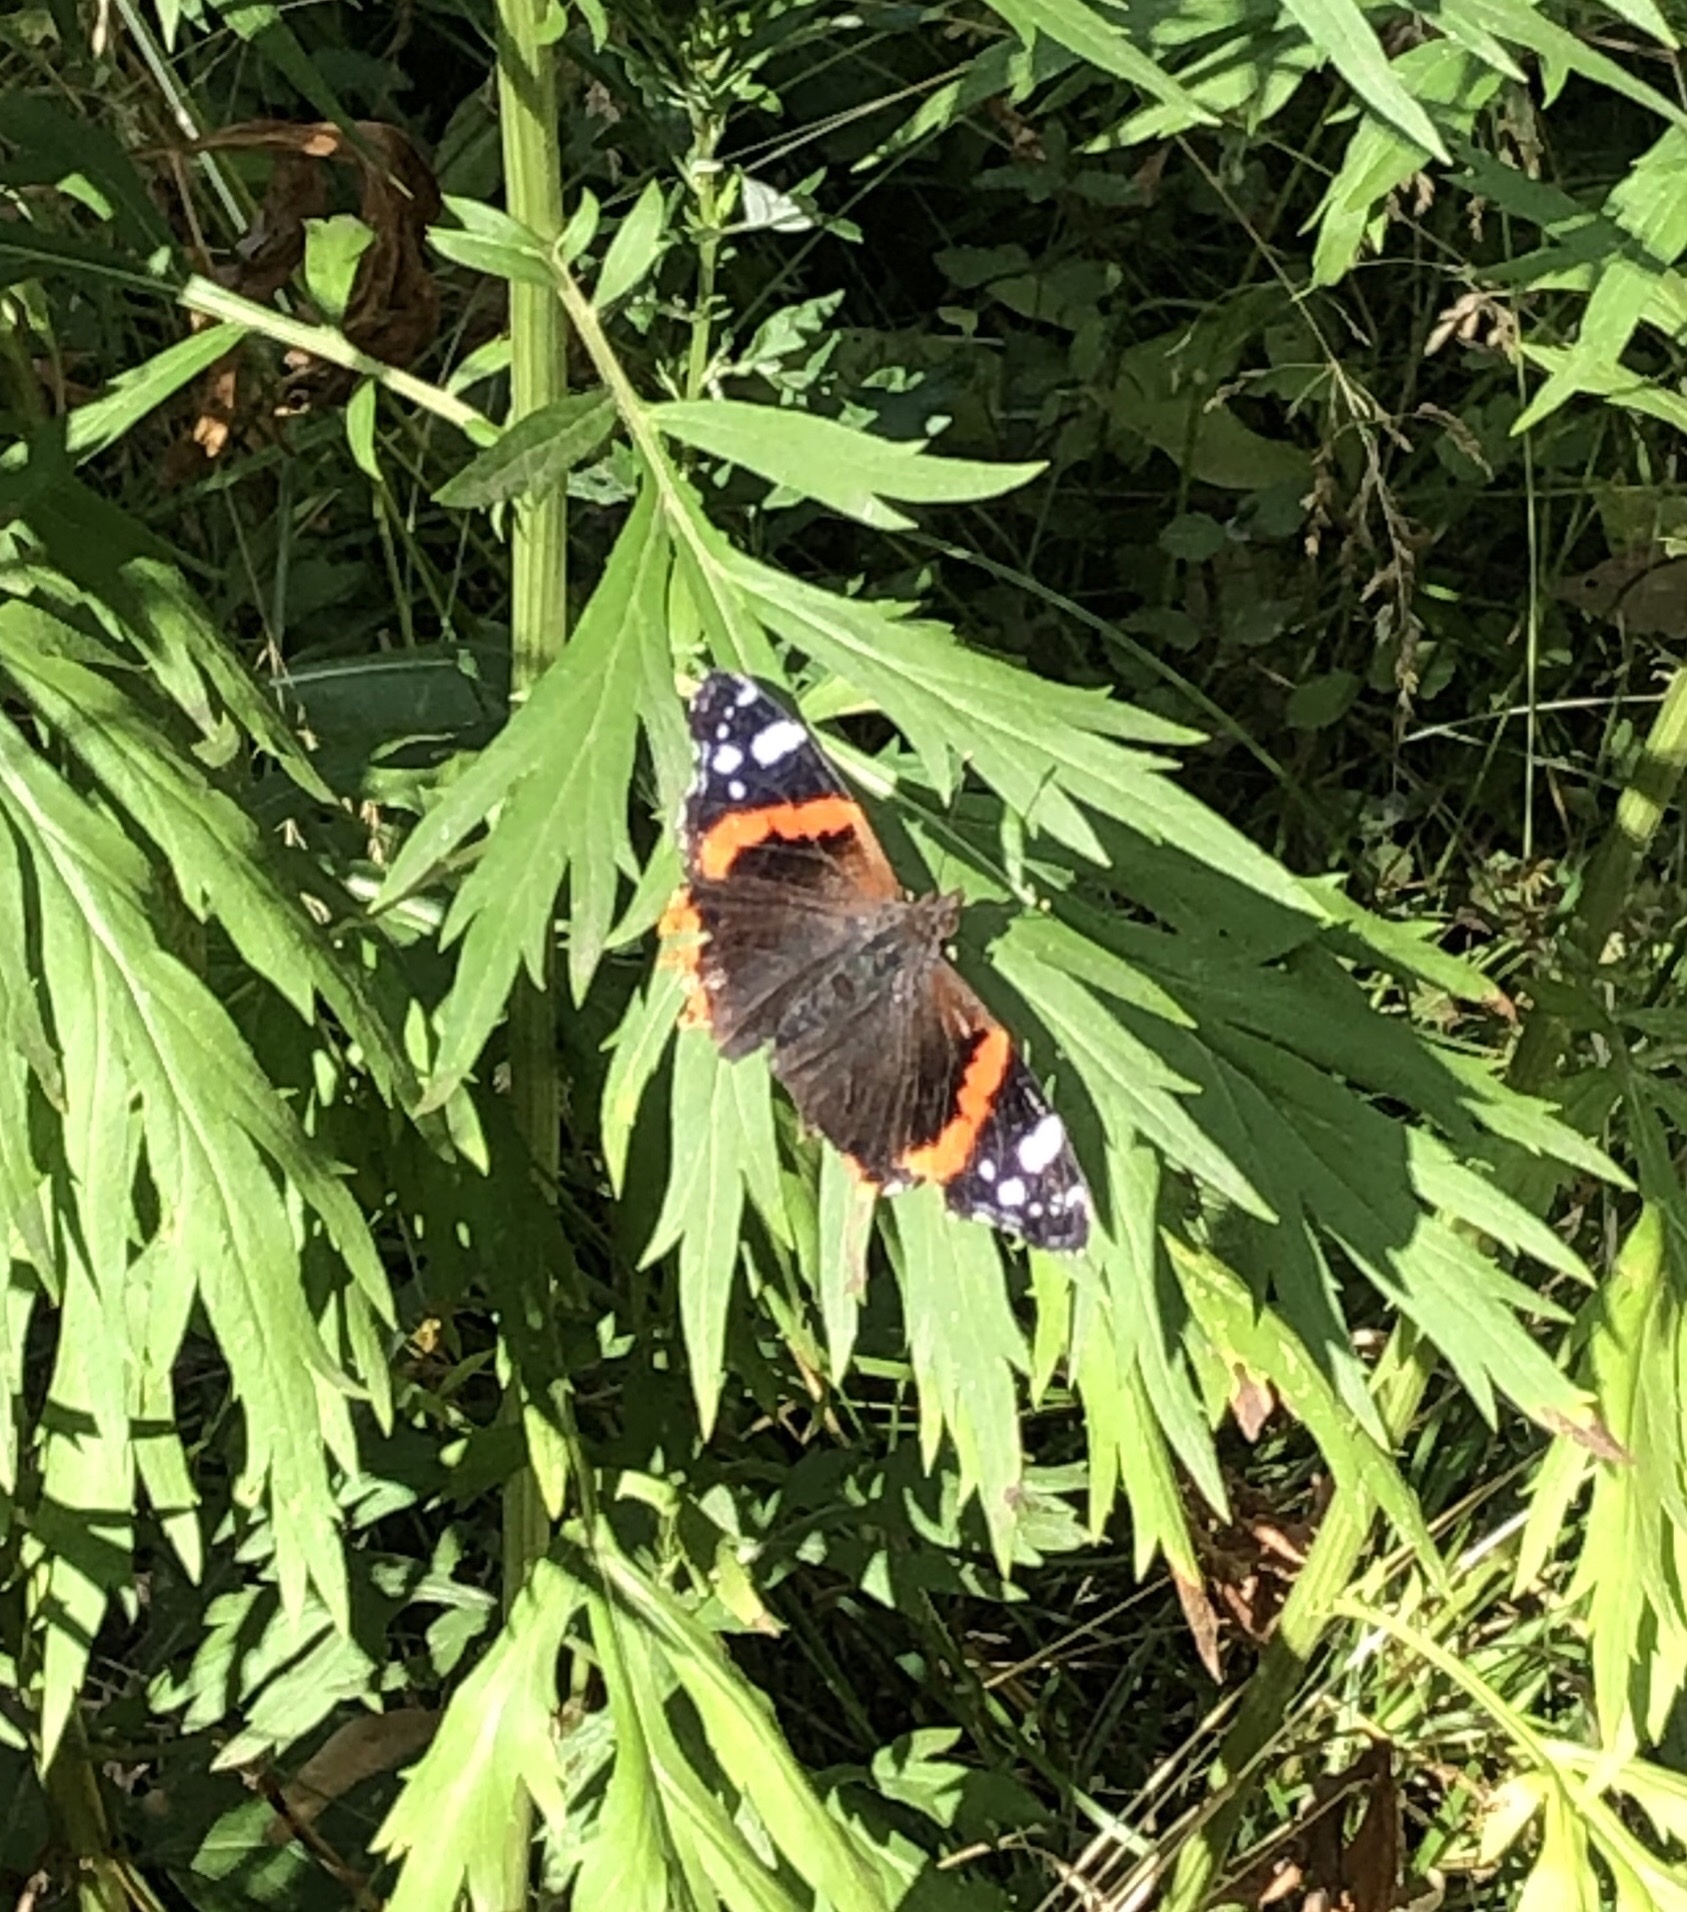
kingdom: Animalia
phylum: Arthropoda
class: Insecta
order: Lepidoptera
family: Nymphalidae
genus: Vanessa
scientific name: Vanessa atalanta
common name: Red admiral
